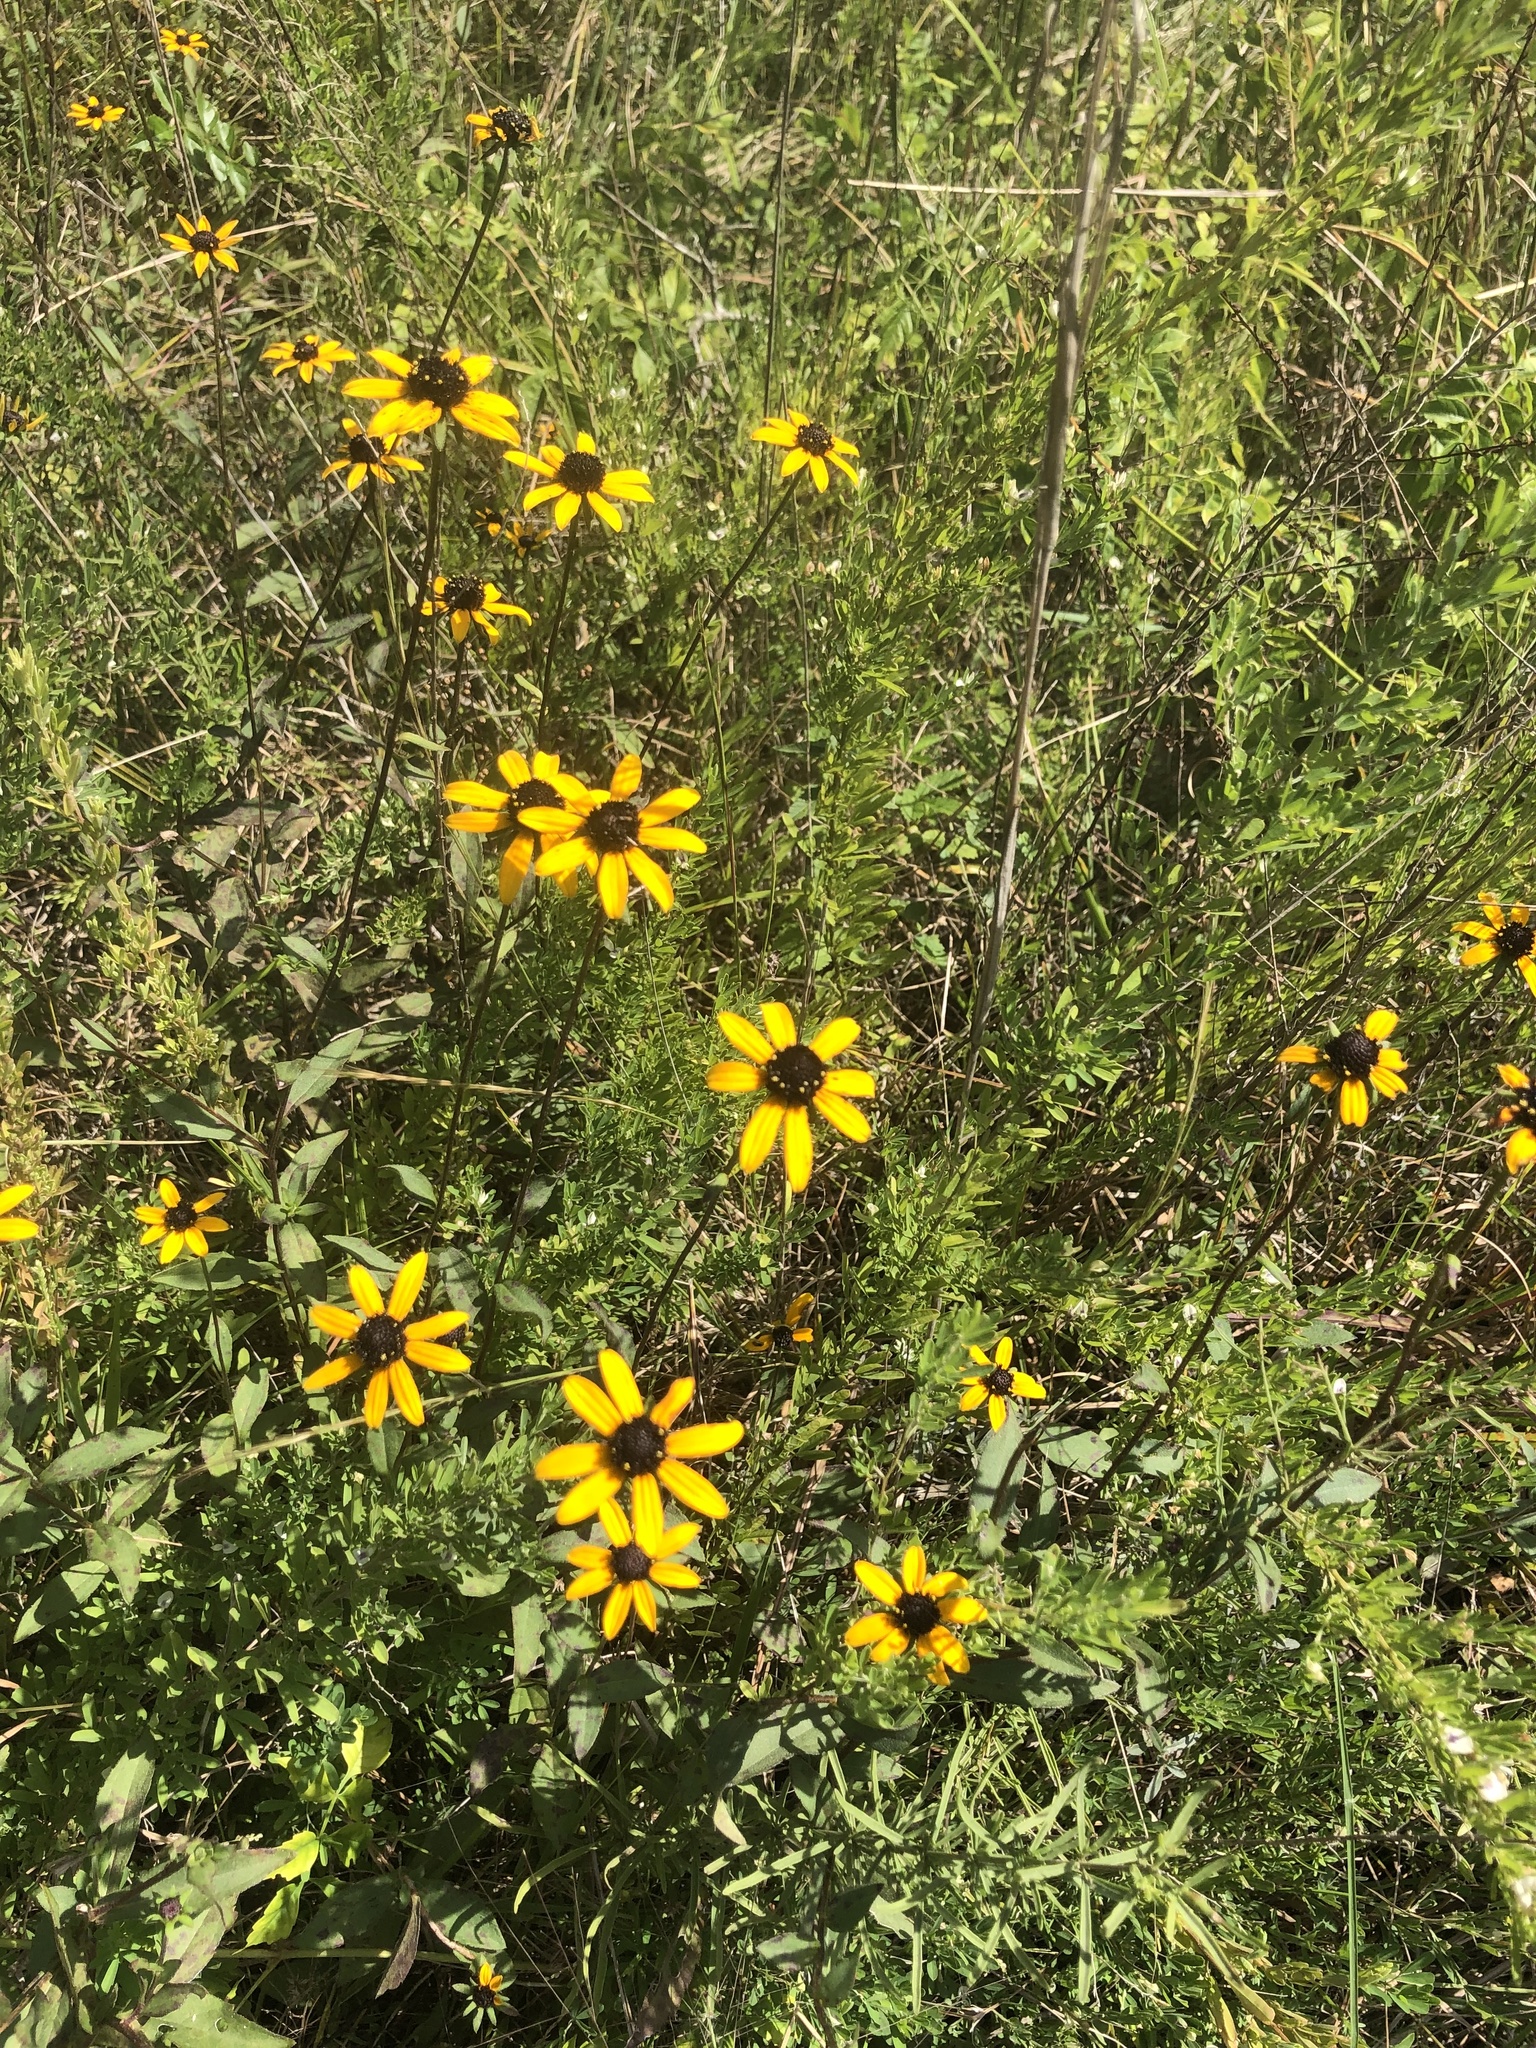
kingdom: Plantae
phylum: Tracheophyta
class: Magnoliopsida
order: Asterales
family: Asteraceae
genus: Rudbeckia
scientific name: Rudbeckia fulgida
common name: Perennial coneflower
